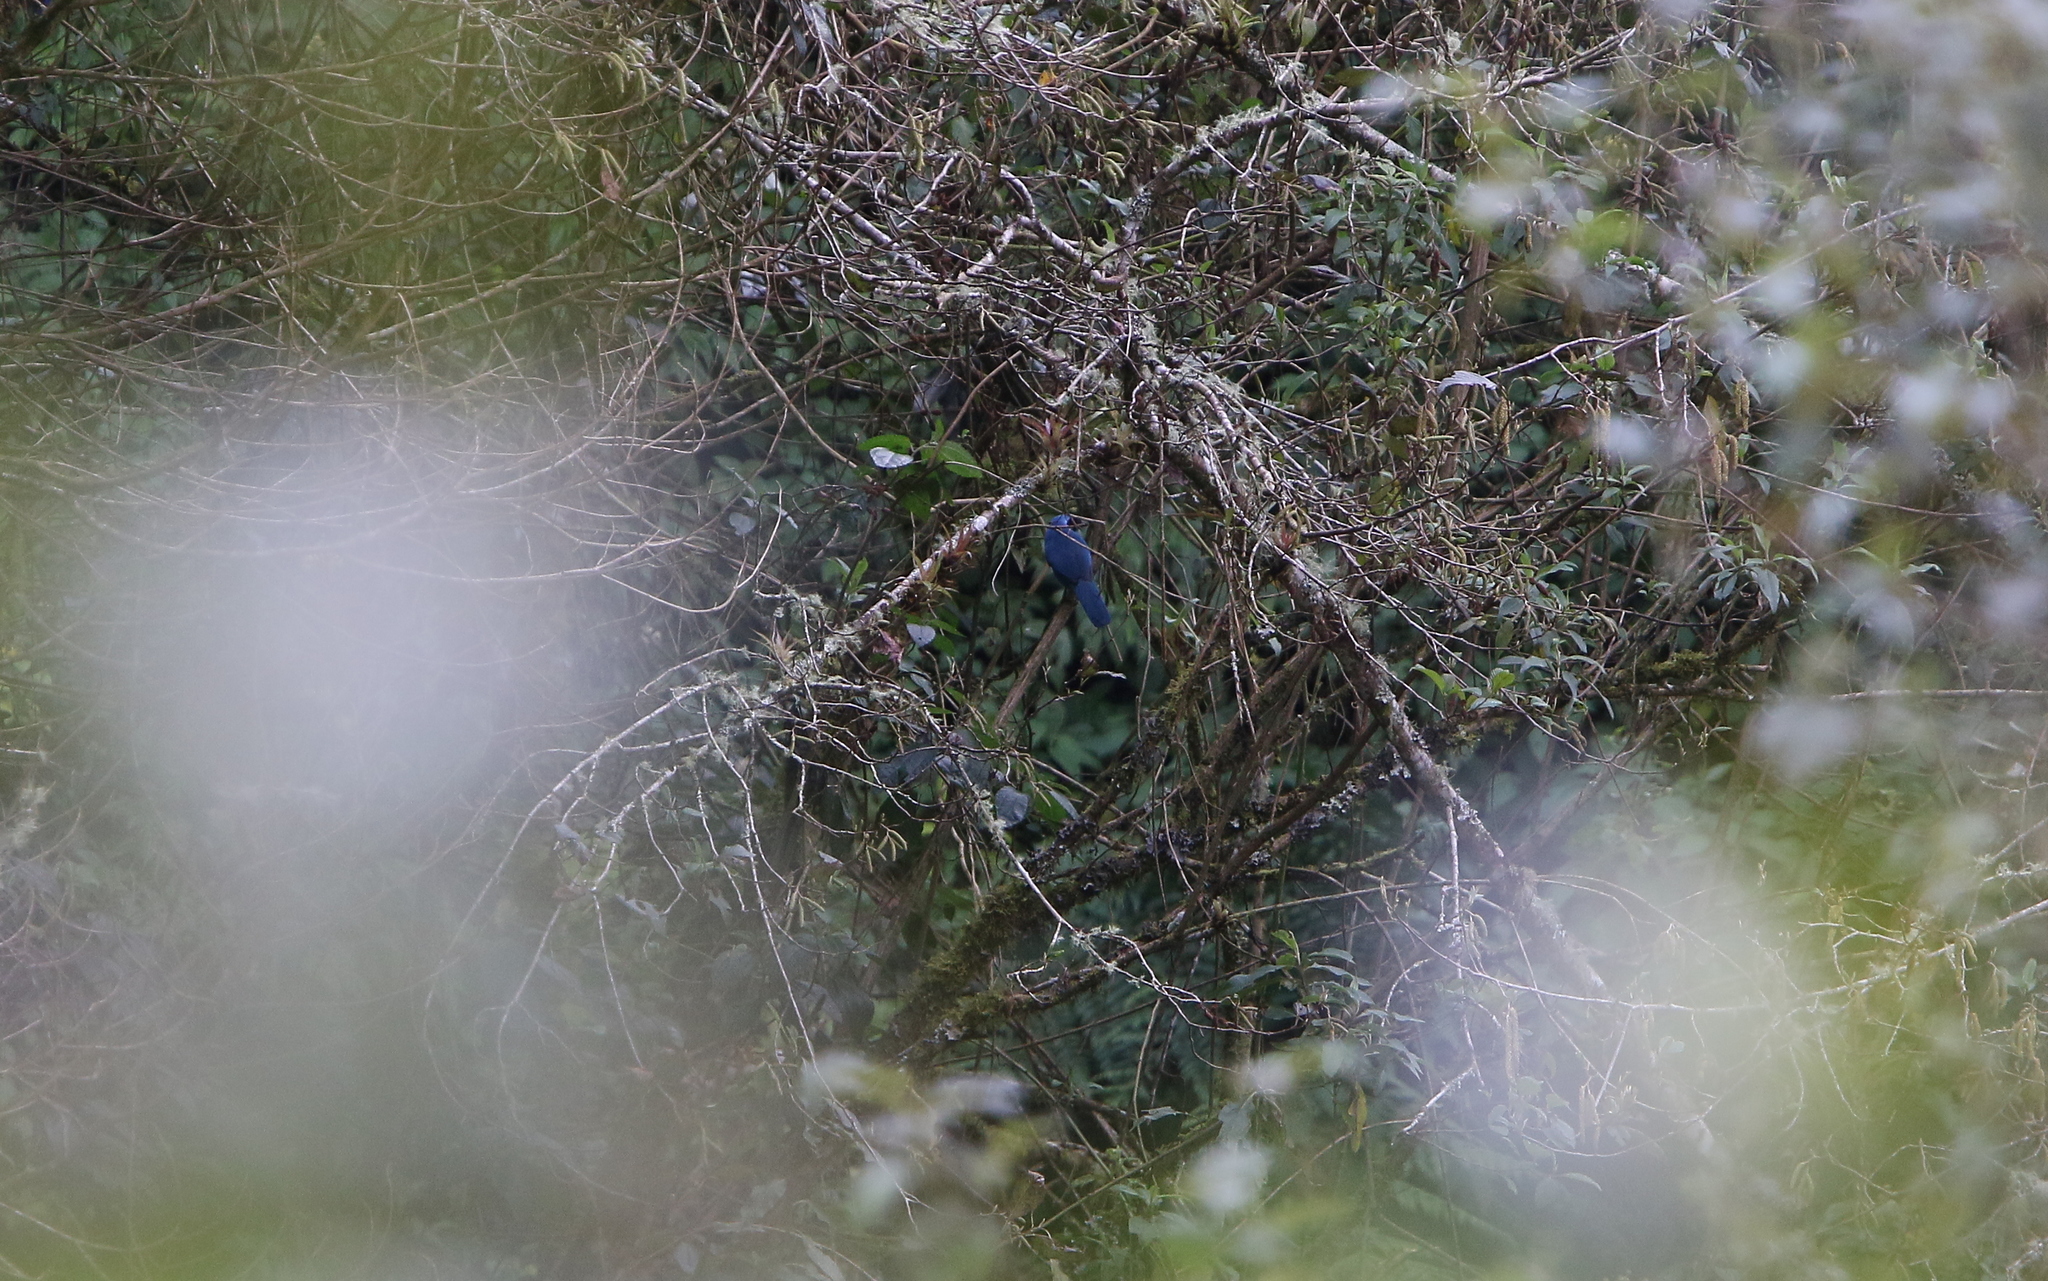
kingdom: Animalia
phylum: Chordata
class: Aves
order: Passeriformes
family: Corvidae
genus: Cyanolyca
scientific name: Cyanolyca turcosa
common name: Turquoise jay
